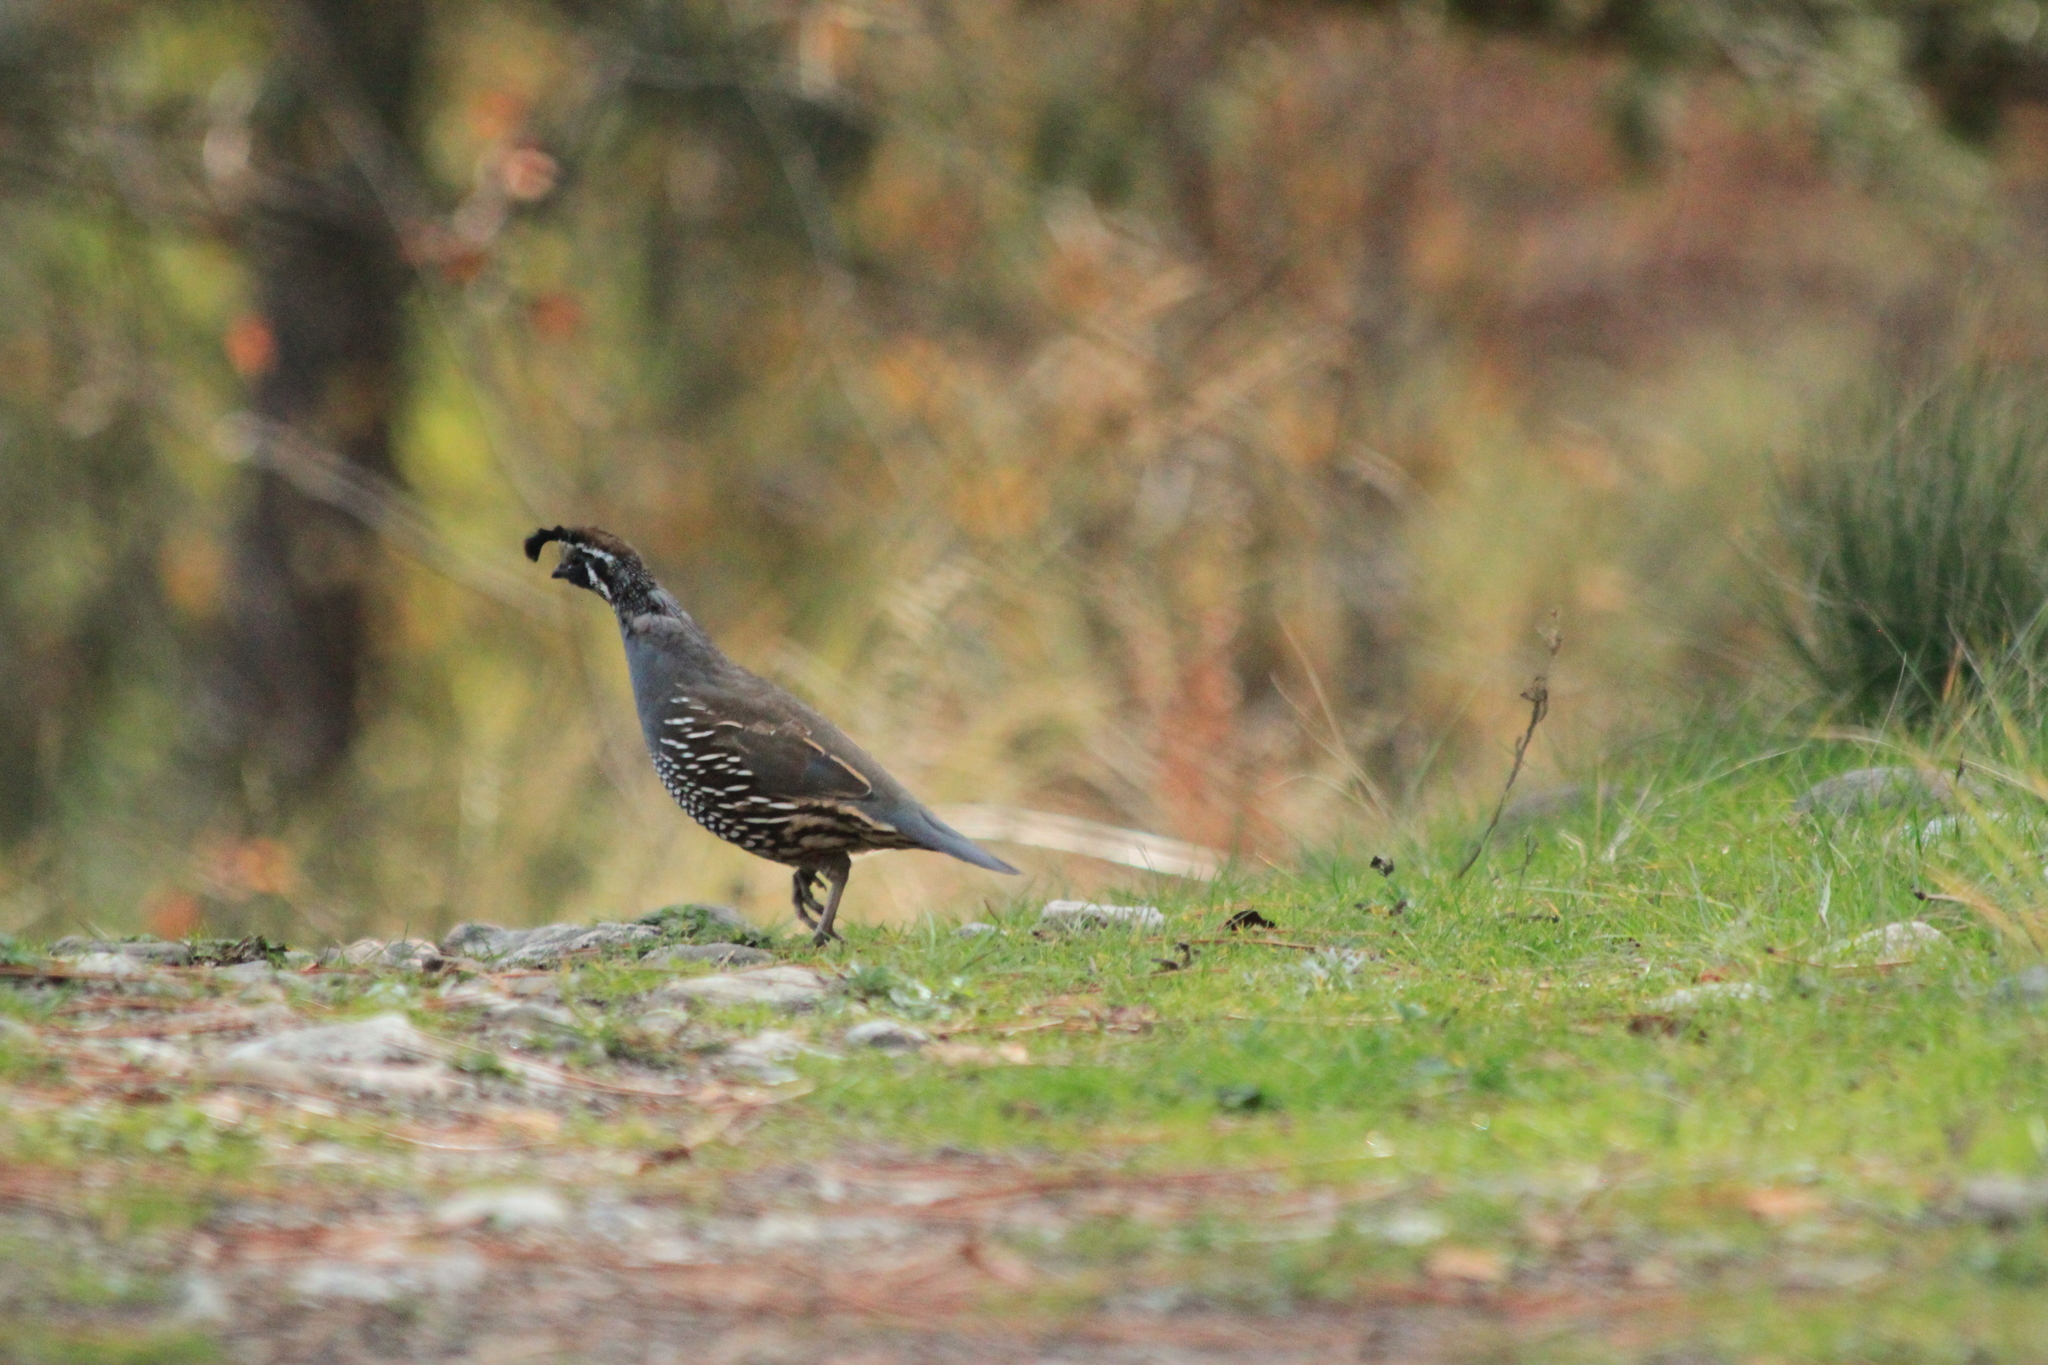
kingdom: Animalia
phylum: Chordata
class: Aves
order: Galliformes
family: Odontophoridae
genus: Callipepla
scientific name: Callipepla californica
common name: California quail
